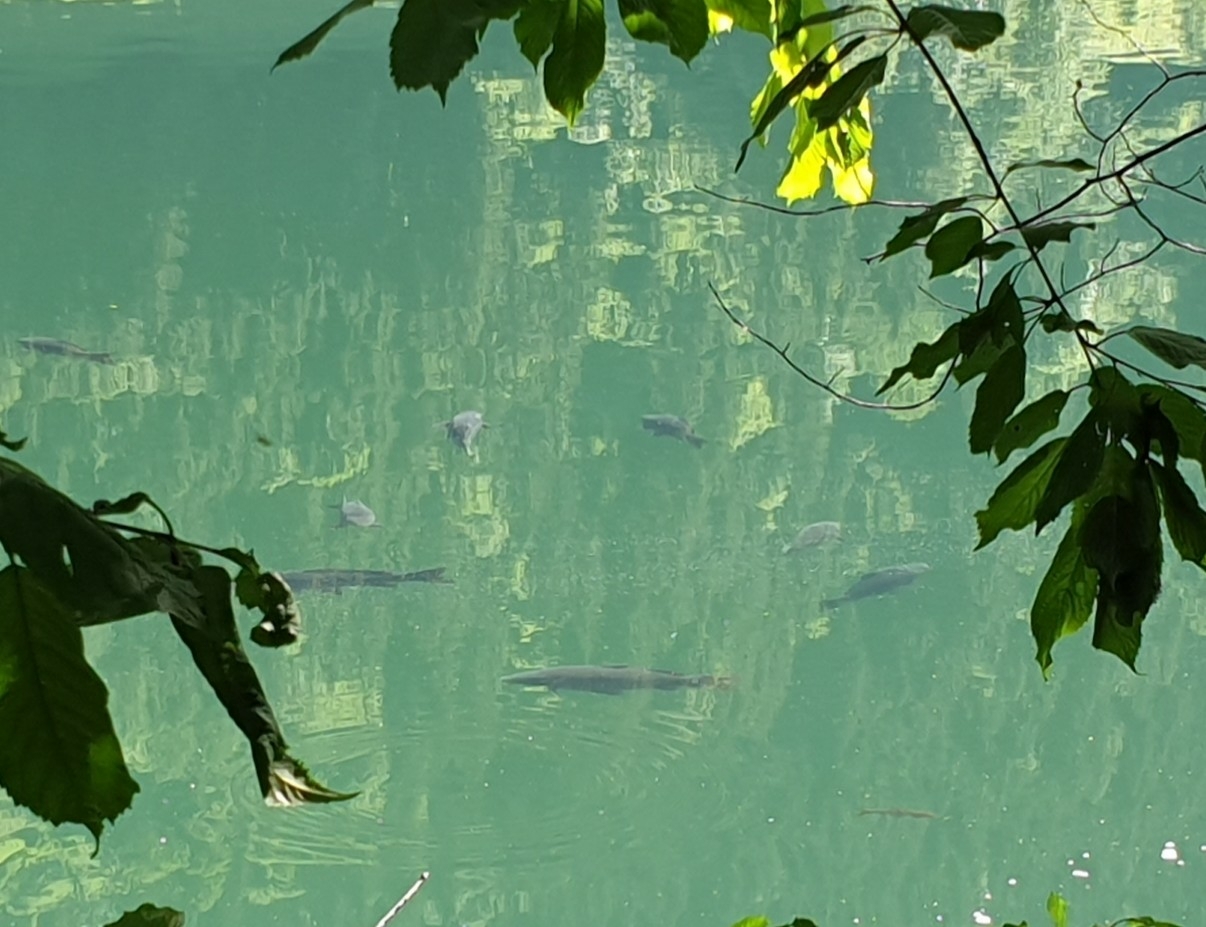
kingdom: Animalia
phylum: Chordata
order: Cypriniformes
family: Cyprinidae
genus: Cyprinus
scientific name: Cyprinus carpio
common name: Common carp
